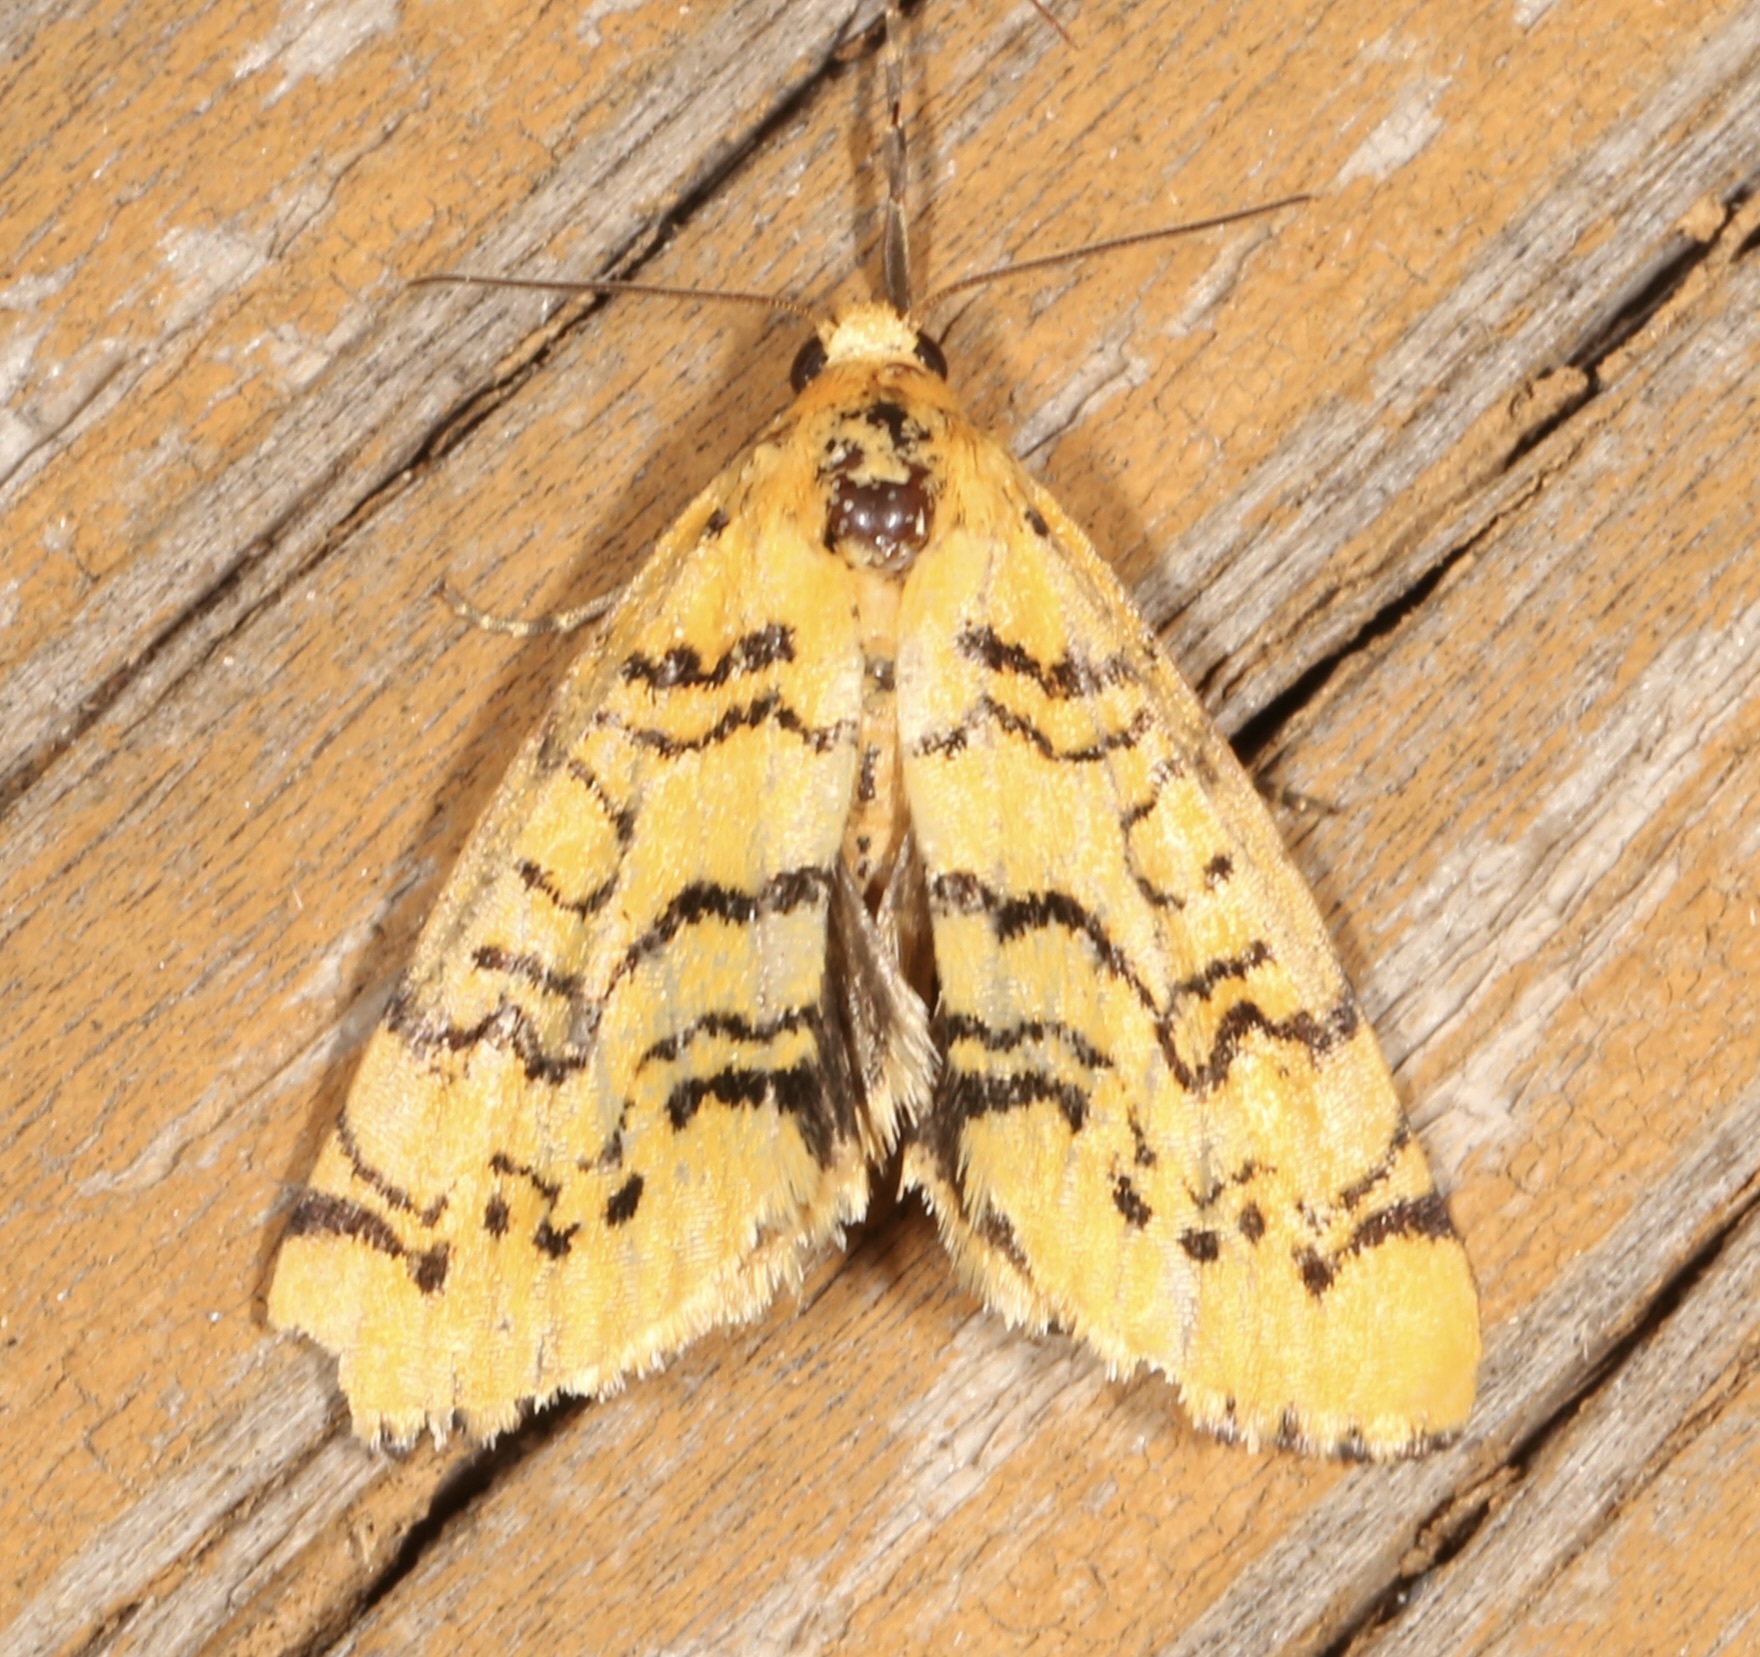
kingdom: Animalia
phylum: Arthropoda
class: Insecta
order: Lepidoptera
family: Noctuidae
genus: Chrysoecia
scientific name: Chrysoecia atrolinea
